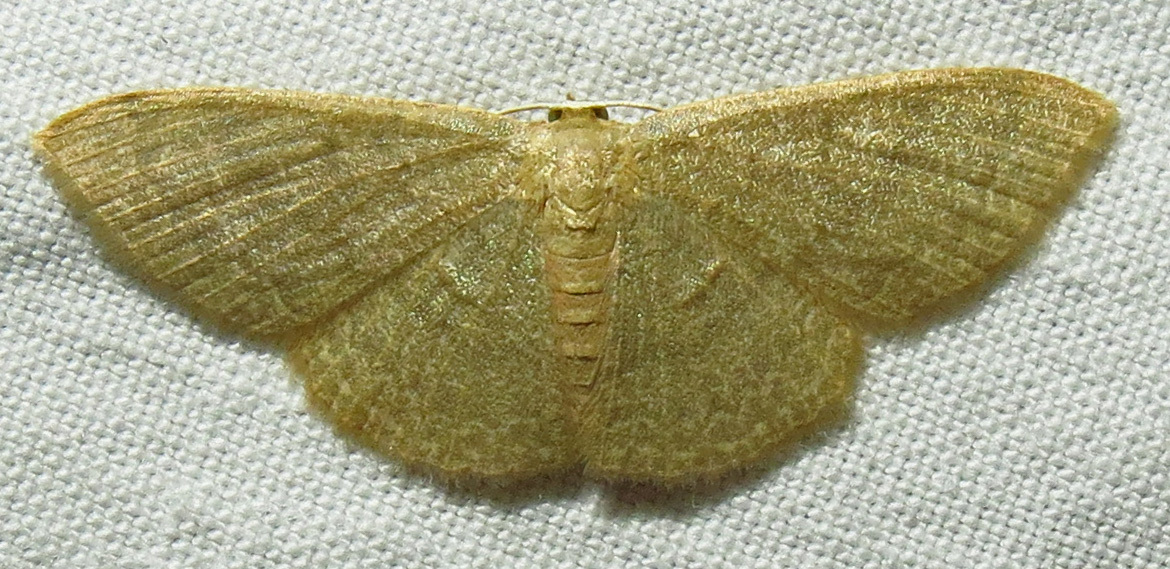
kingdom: Animalia
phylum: Arthropoda
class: Insecta
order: Lepidoptera
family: Geometridae
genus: Pleuroprucha
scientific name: Pleuroprucha insulsaria
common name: Common tan wave
